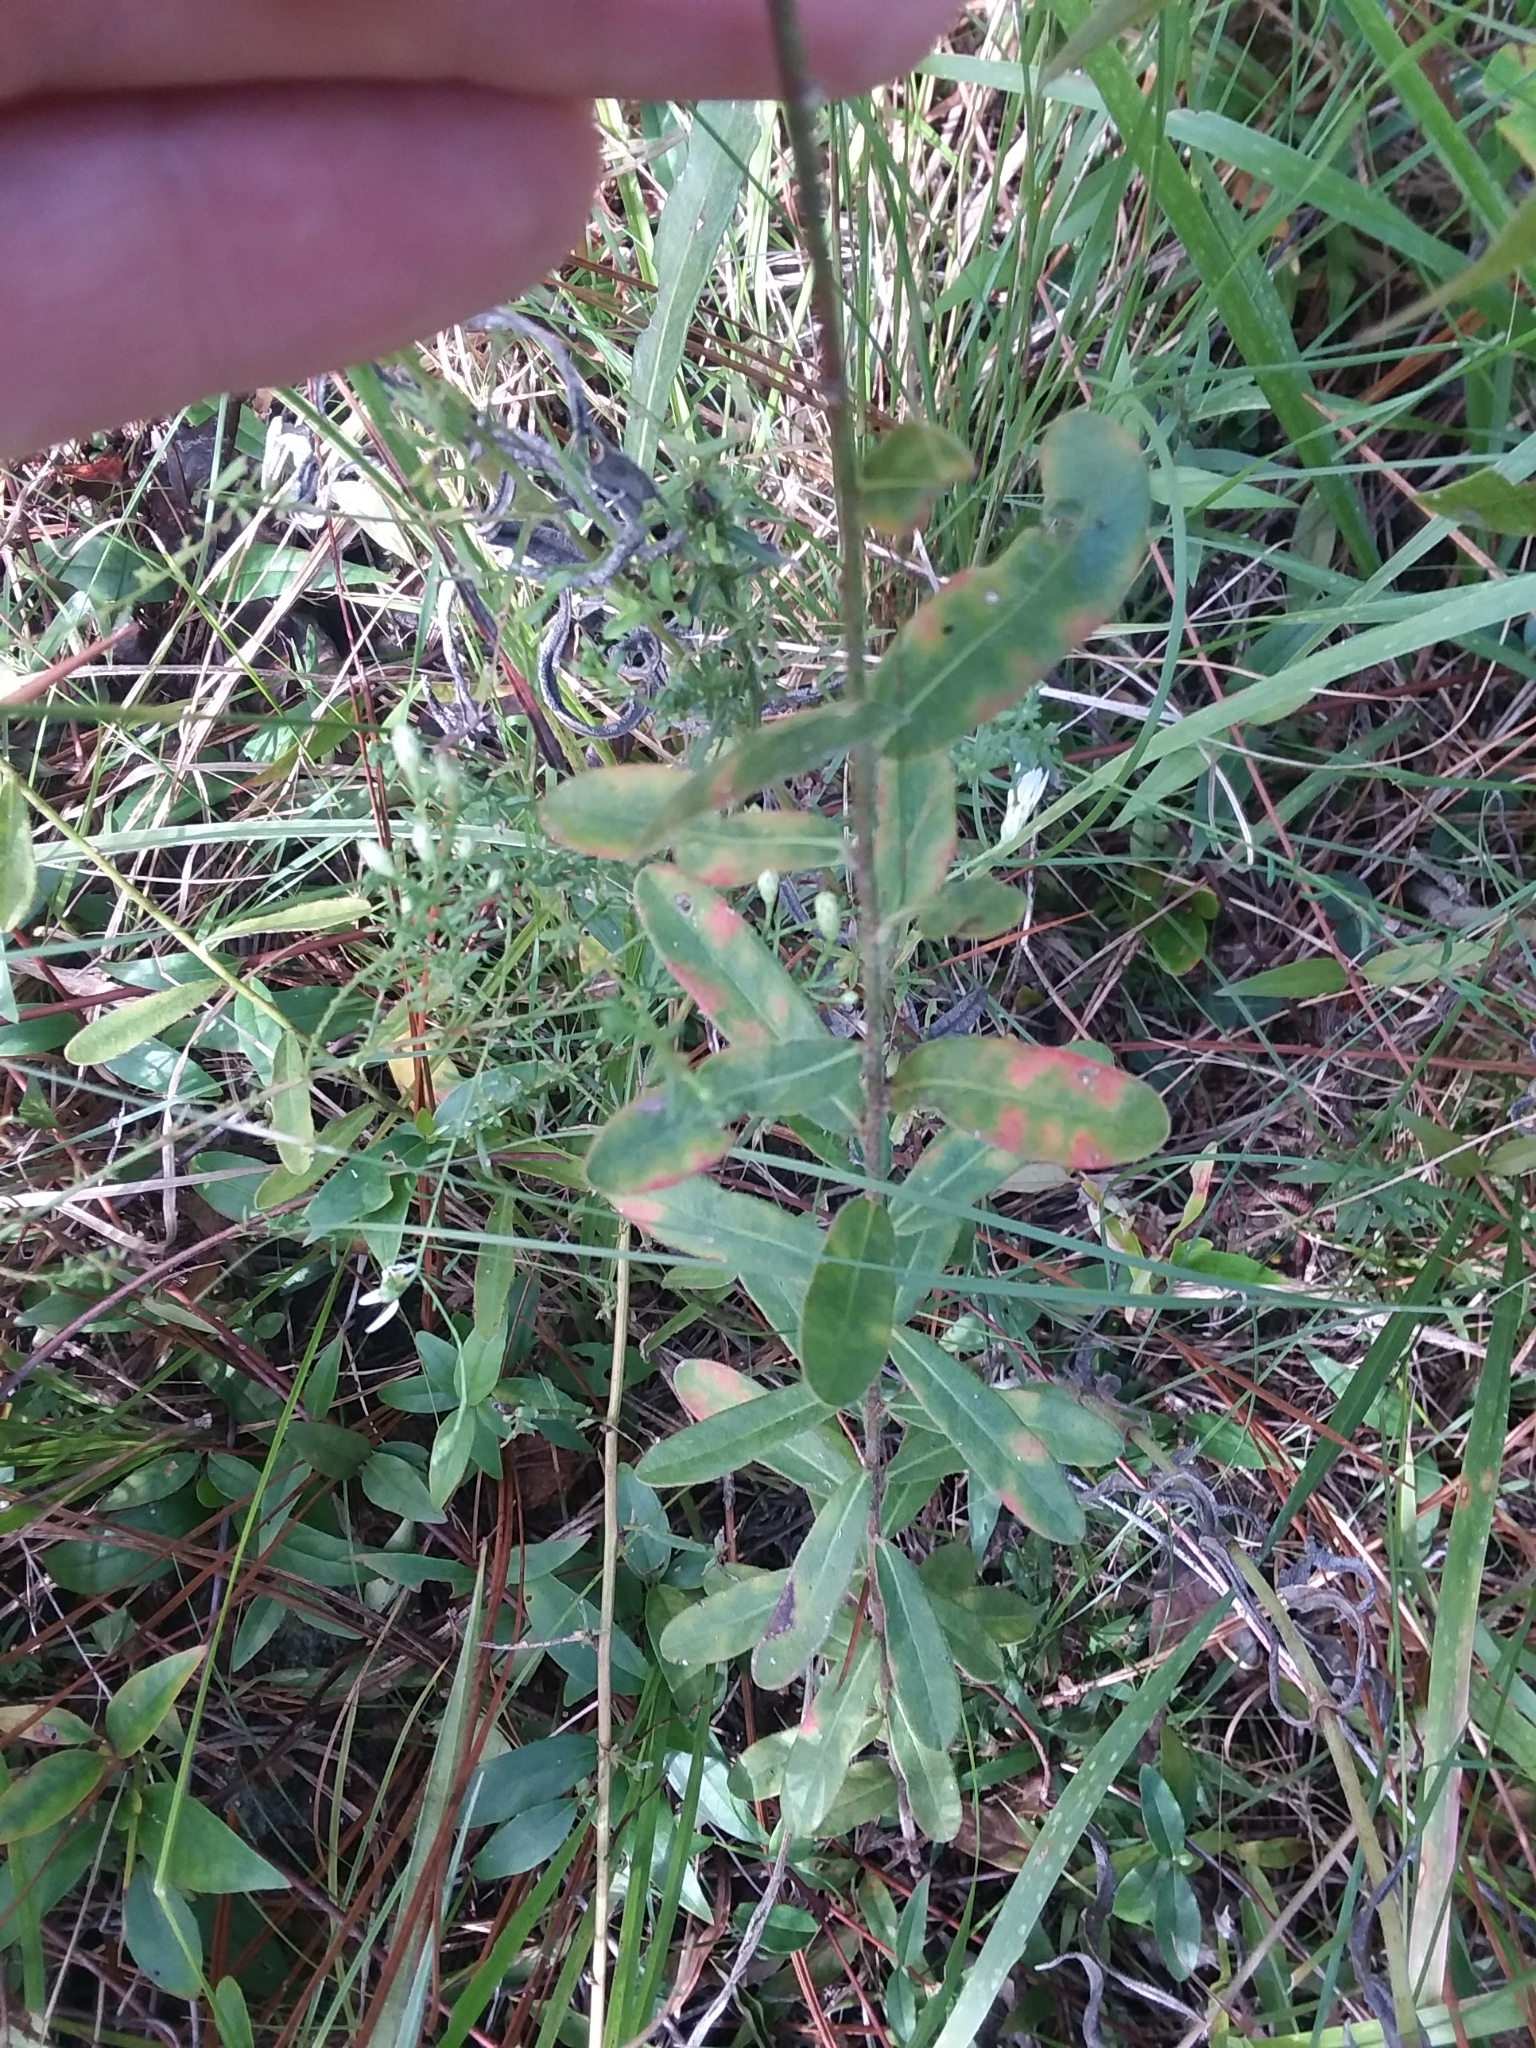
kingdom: Plantae
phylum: Tracheophyta
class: Magnoliopsida
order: Malpighiales
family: Euphorbiaceae
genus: Euphorbia
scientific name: Euphorbia corollata
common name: Flowering spurge
